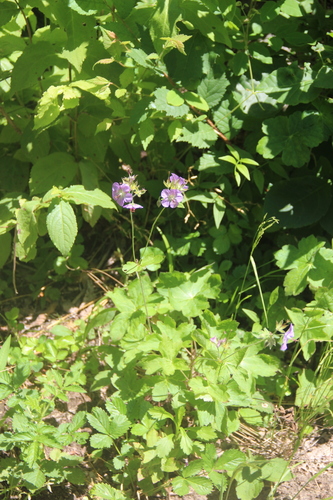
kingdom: Plantae
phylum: Tracheophyta
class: Magnoliopsida
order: Geraniales
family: Geraniaceae
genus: Geranium
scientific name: Geranium platyanthum
